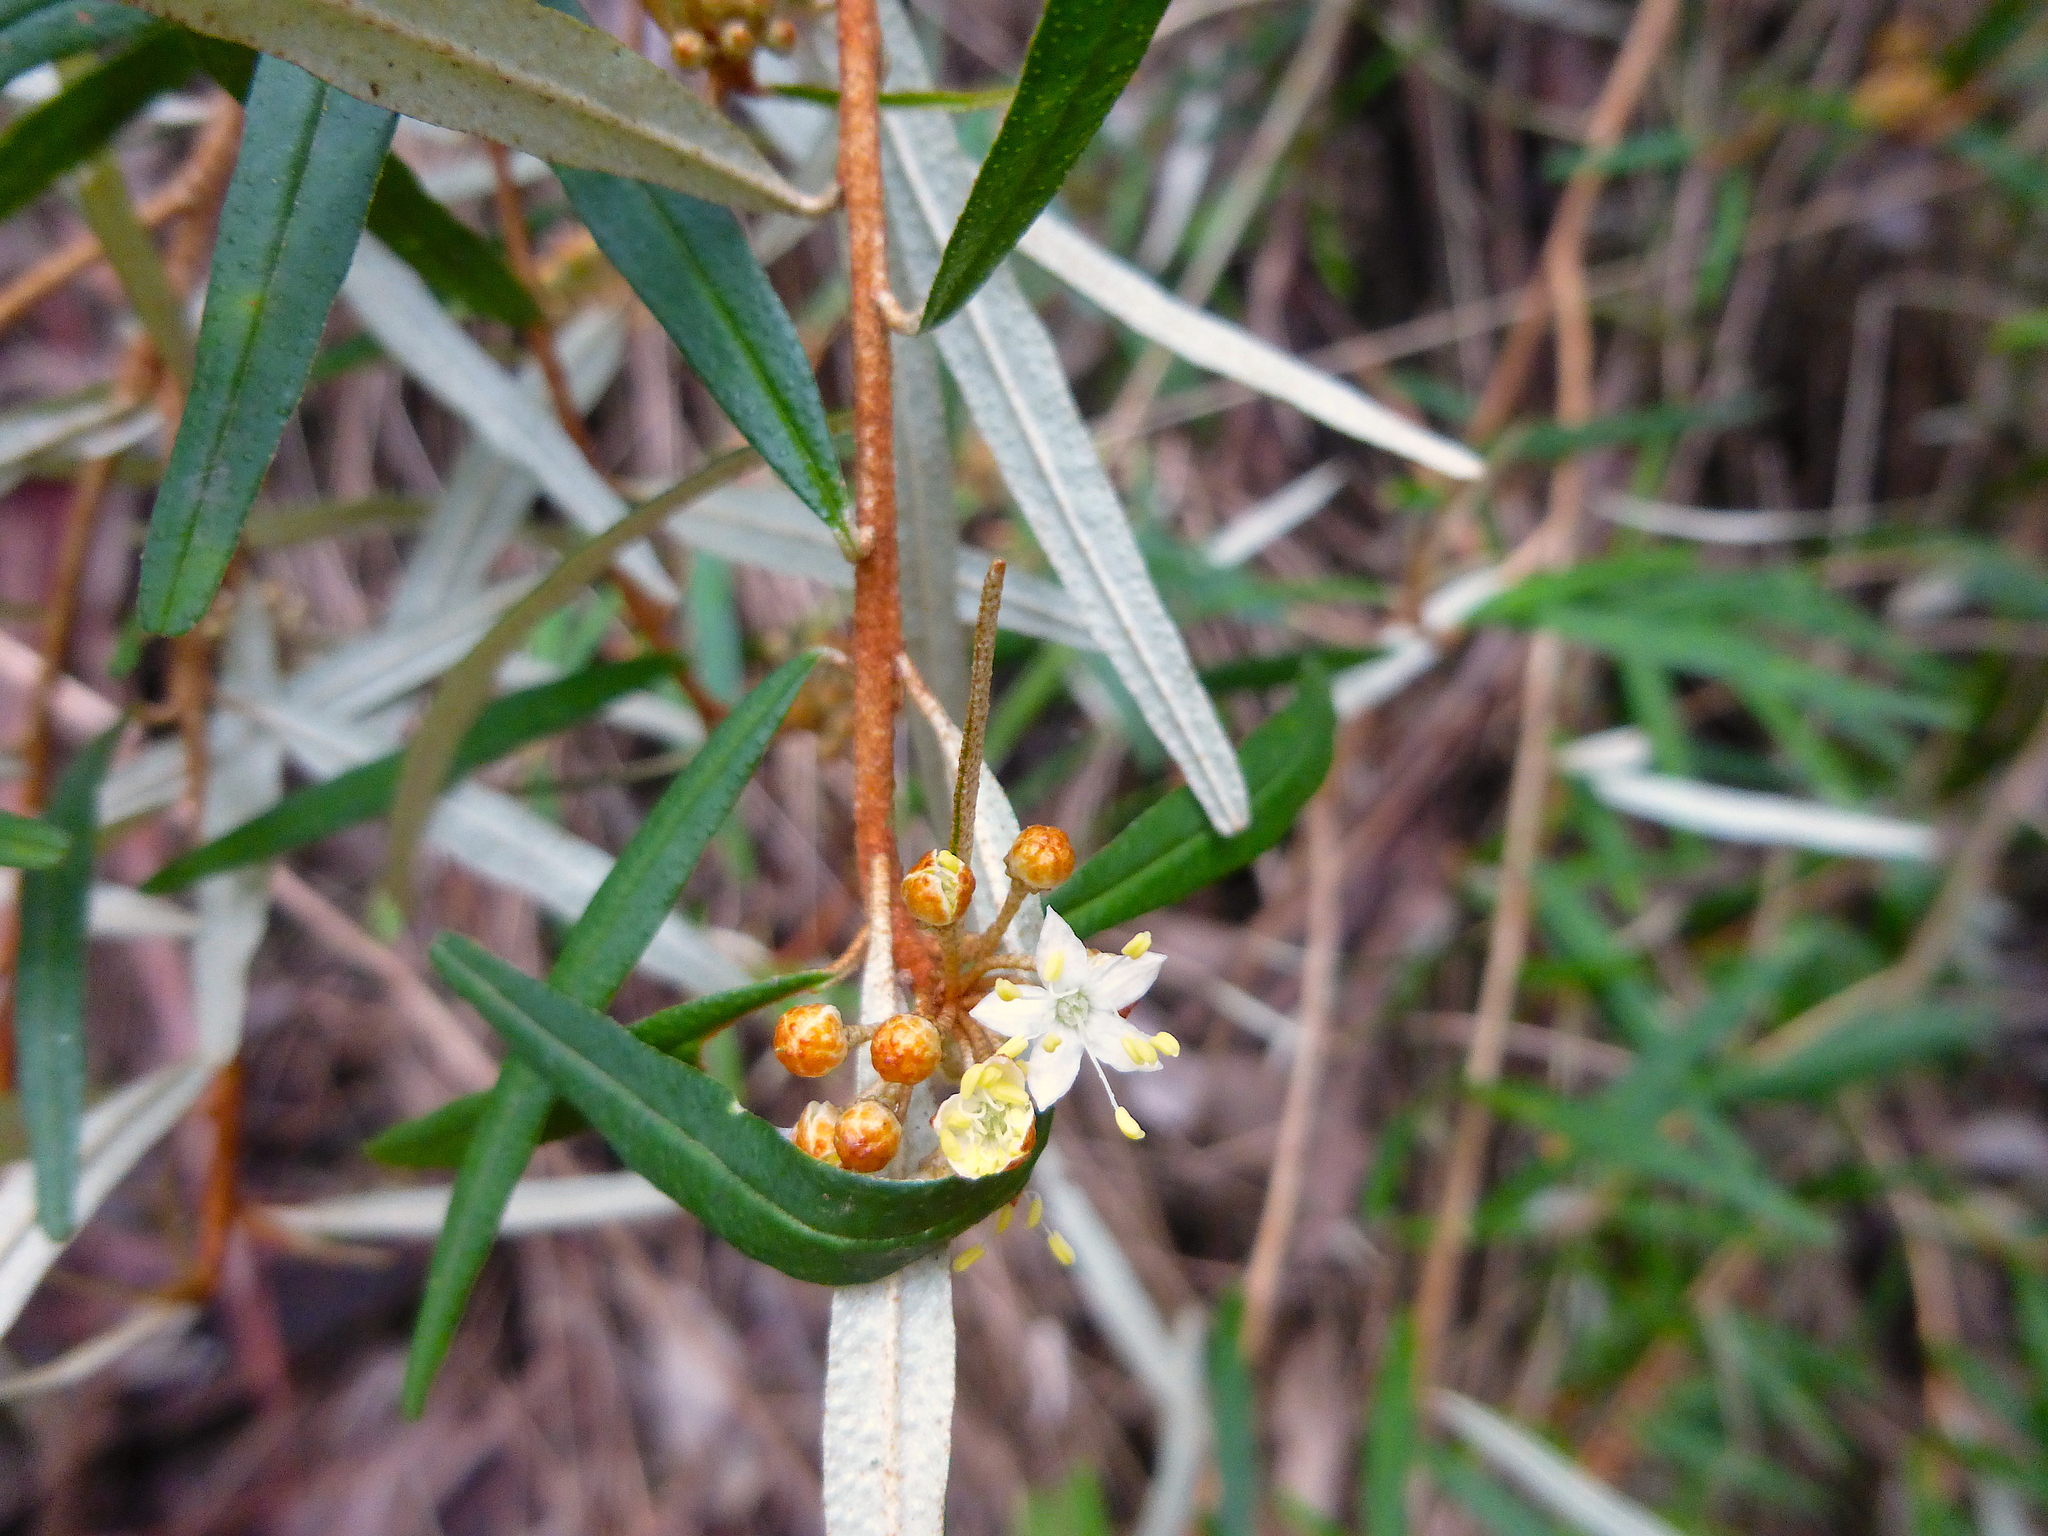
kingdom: Plantae
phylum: Tracheophyta
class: Magnoliopsida
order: Sapindales
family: Rutaceae
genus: Phebalium
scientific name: Phebalium squamulosum
